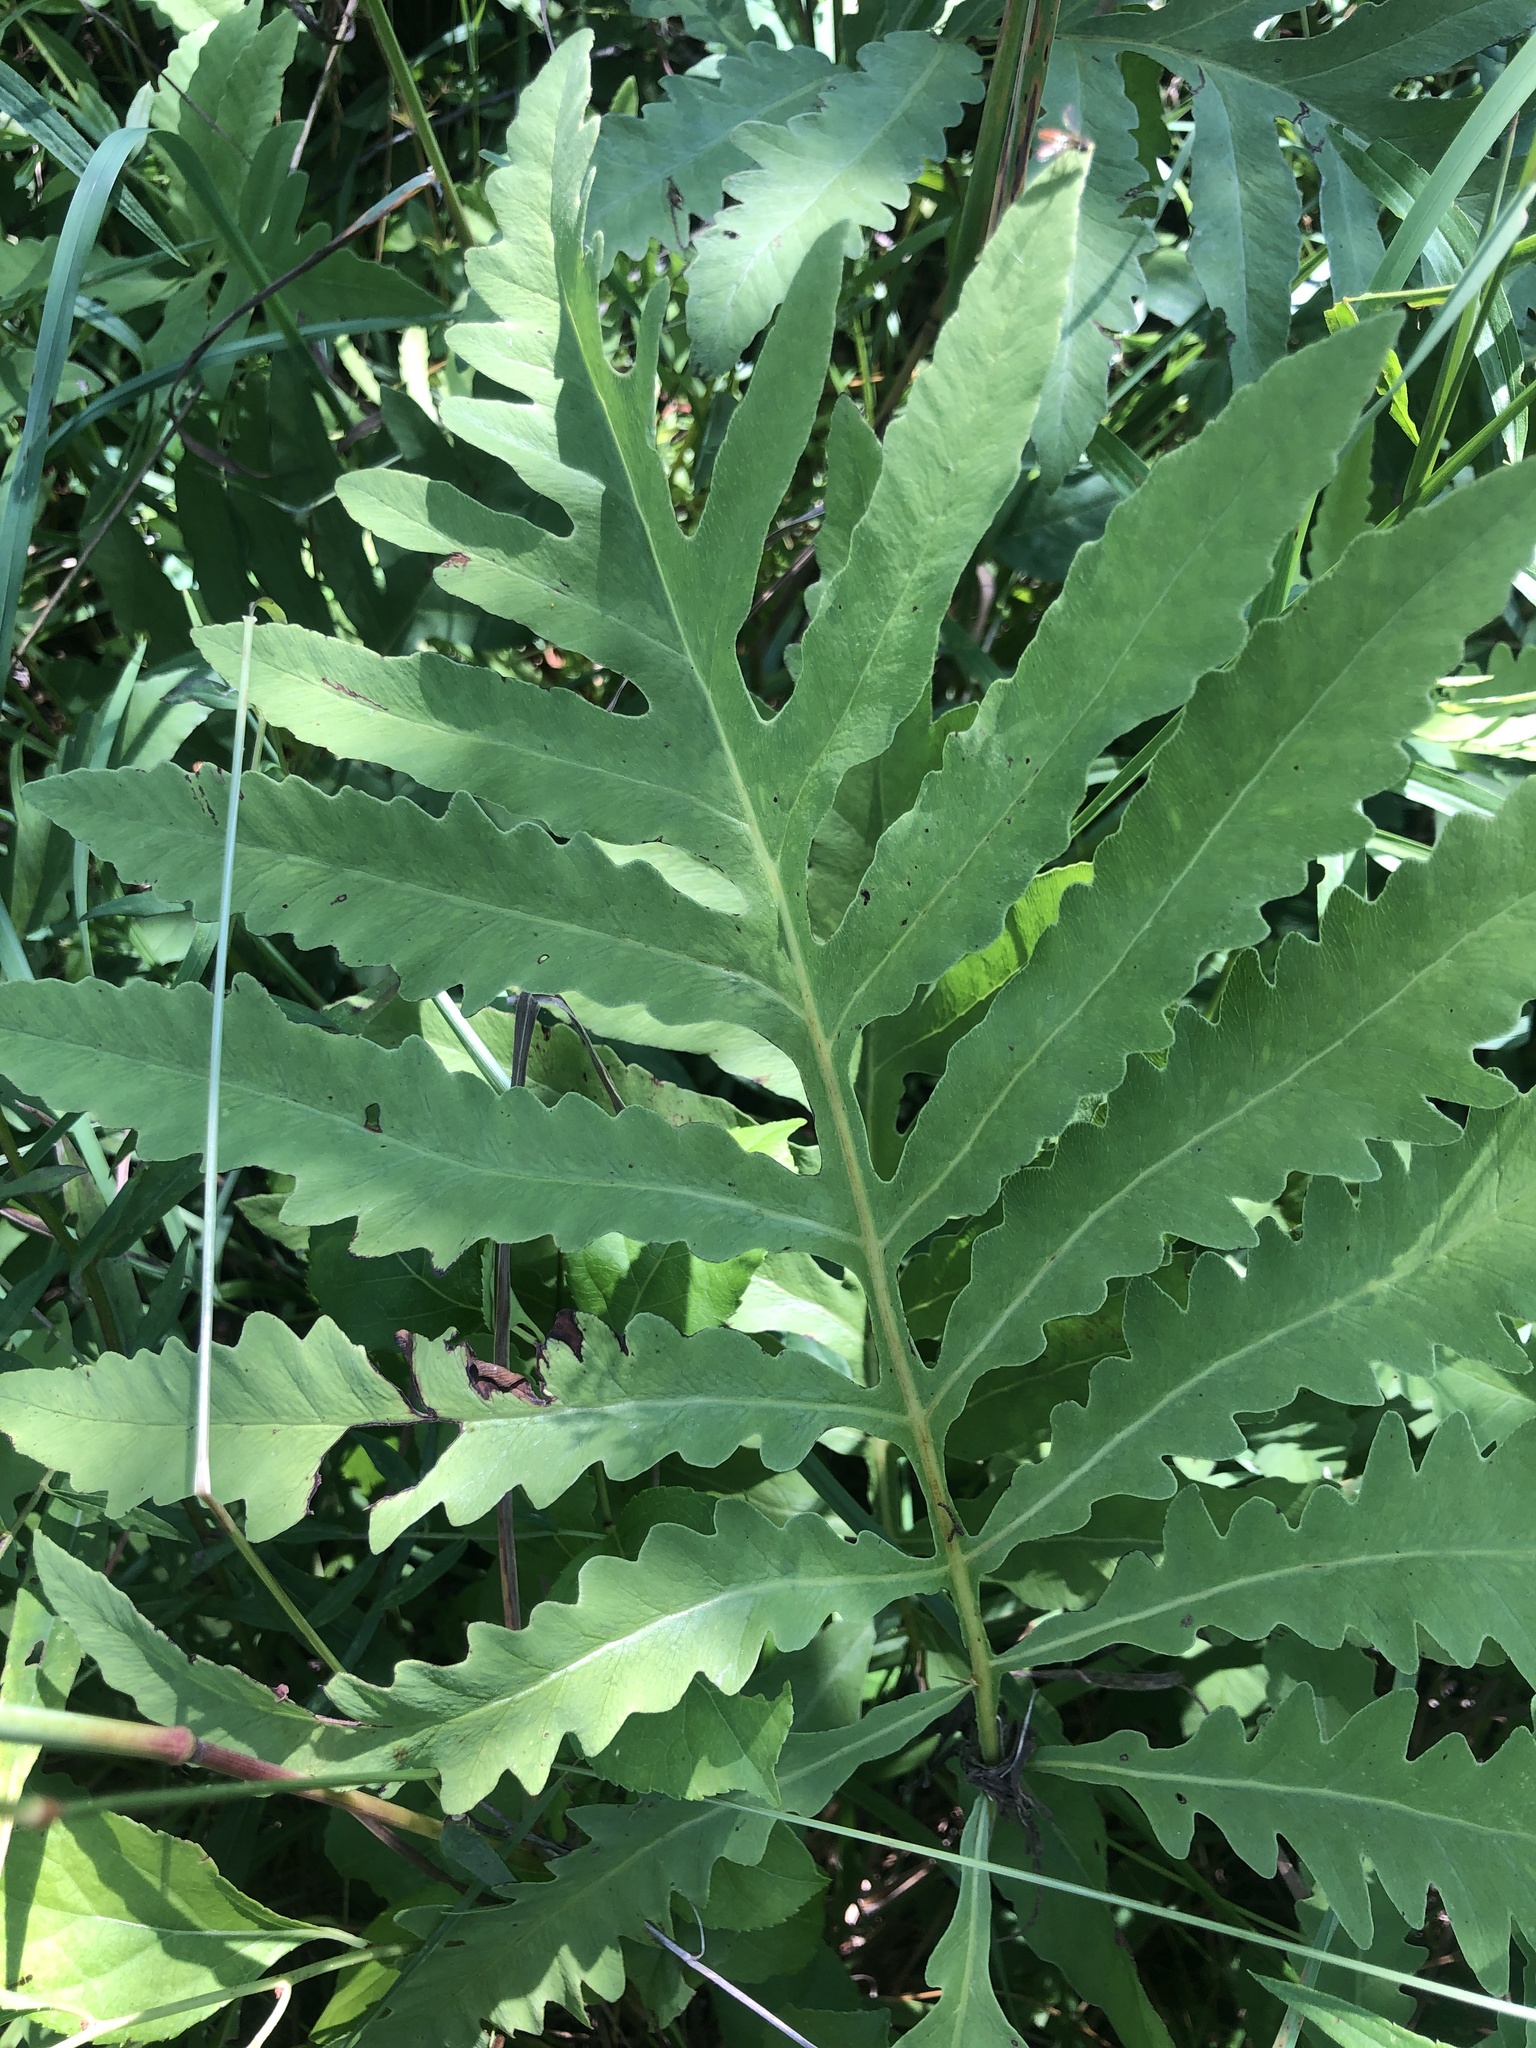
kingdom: Plantae
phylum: Tracheophyta
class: Polypodiopsida
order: Polypodiales
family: Onocleaceae
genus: Onoclea
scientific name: Onoclea sensibilis
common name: Sensitive fern
